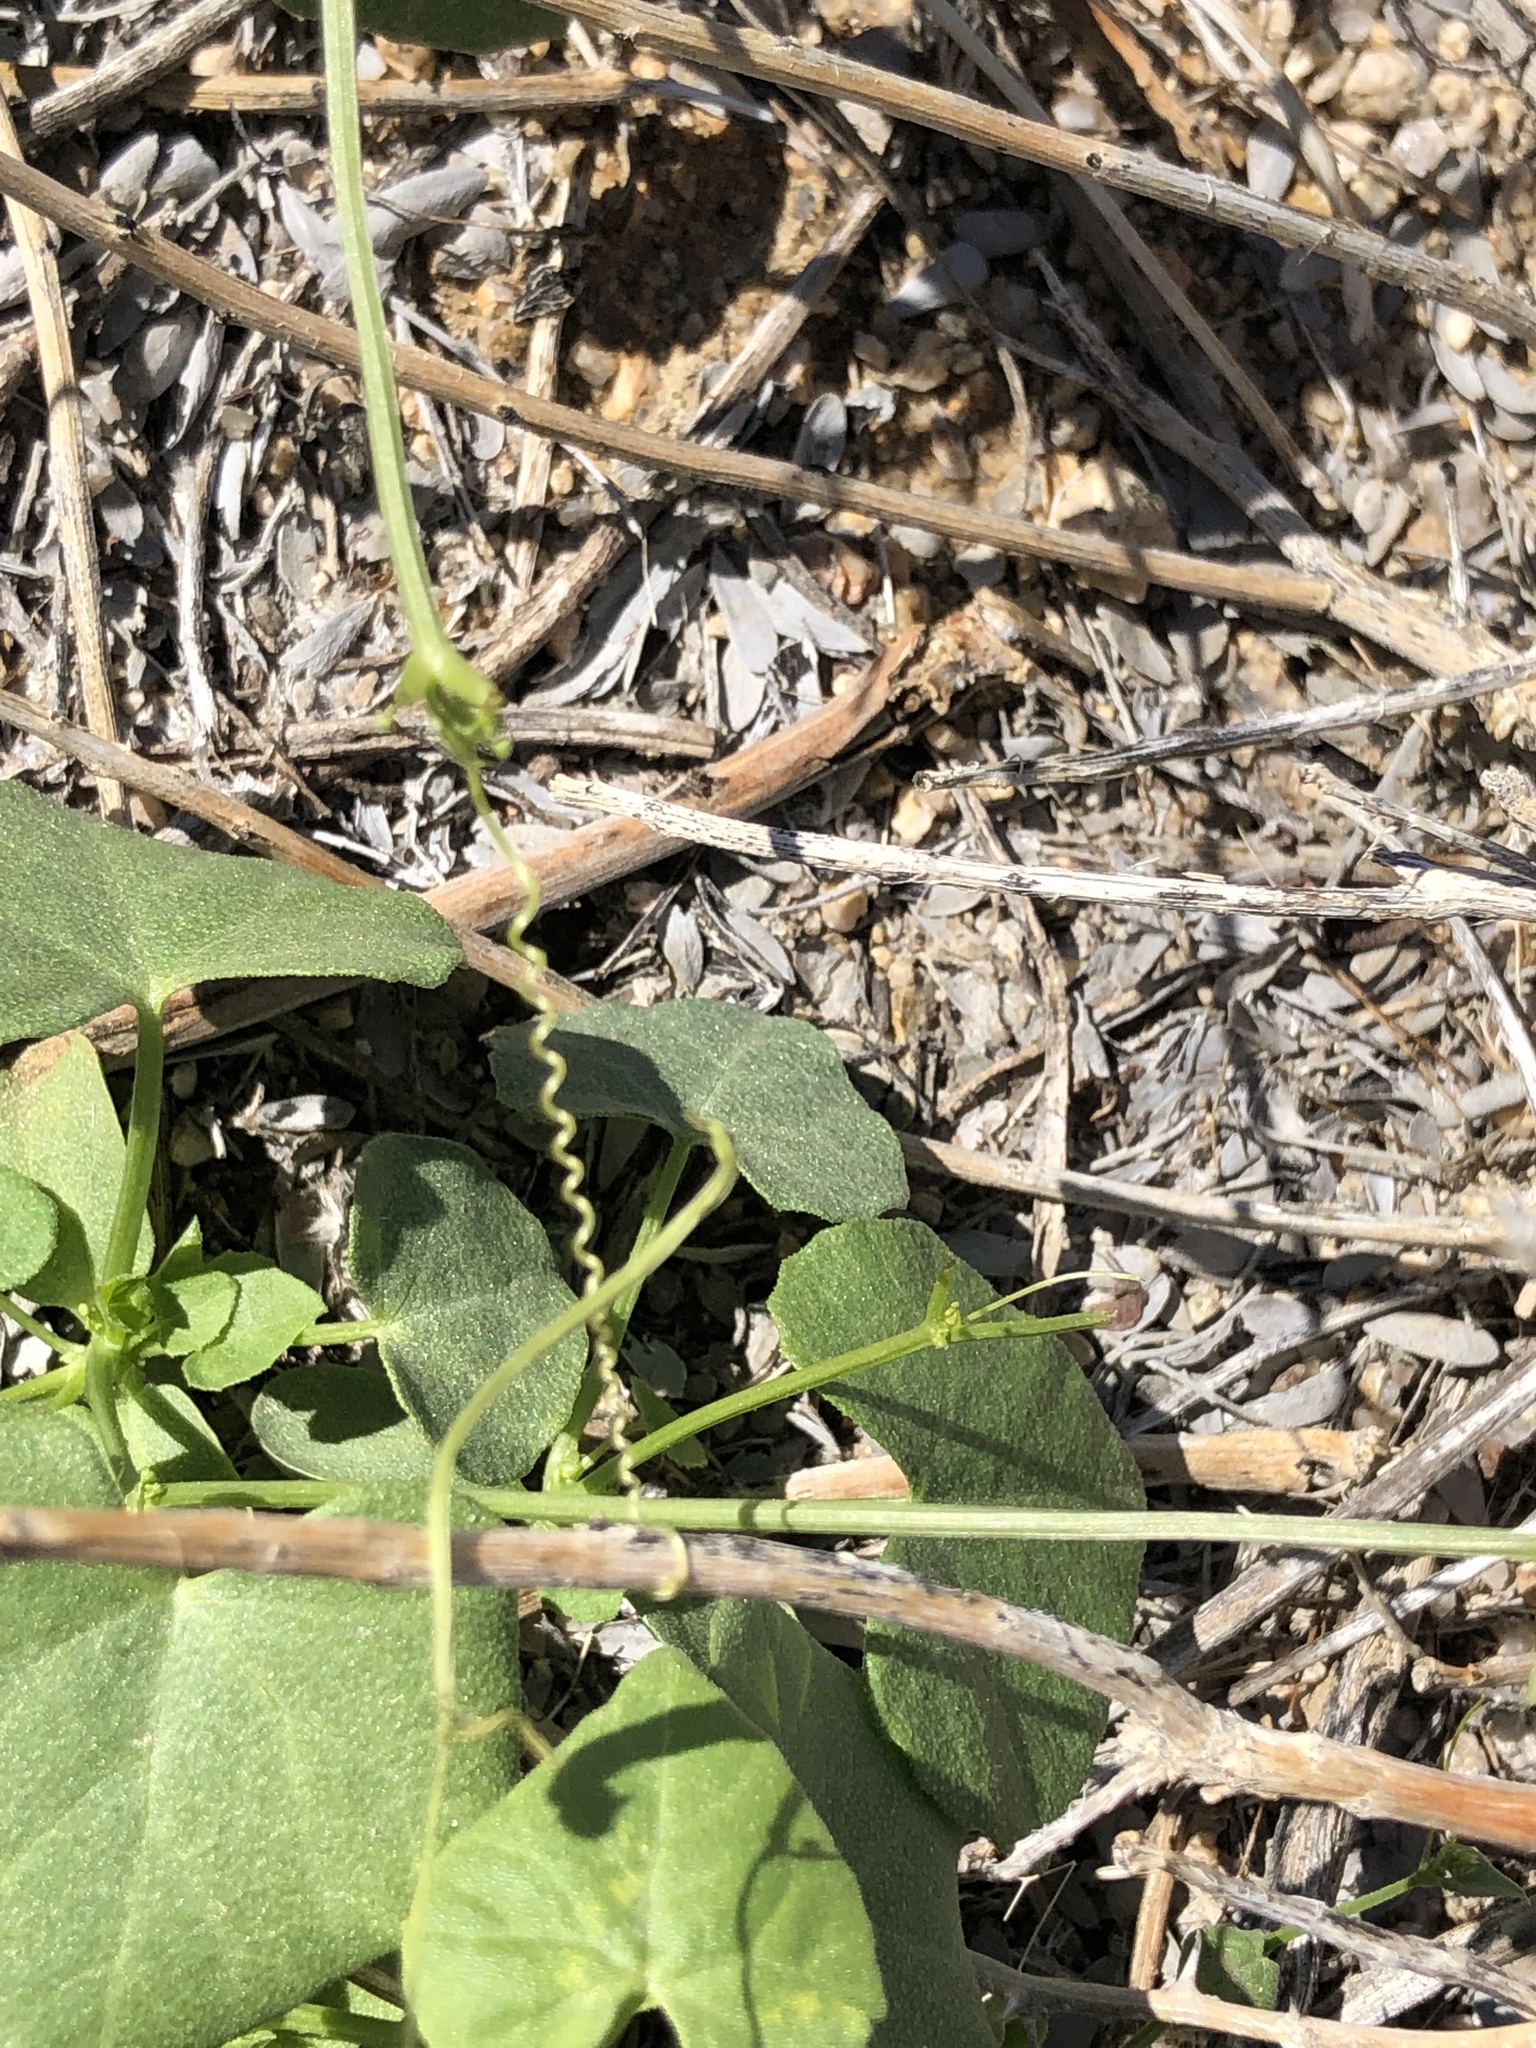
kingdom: Plantae
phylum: Tracheophyta
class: Magnoliopsida
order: Cucurbitales
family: Cucurbitaceae
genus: Echinopepon
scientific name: Echinopepon bigelovii
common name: Desert starvine
